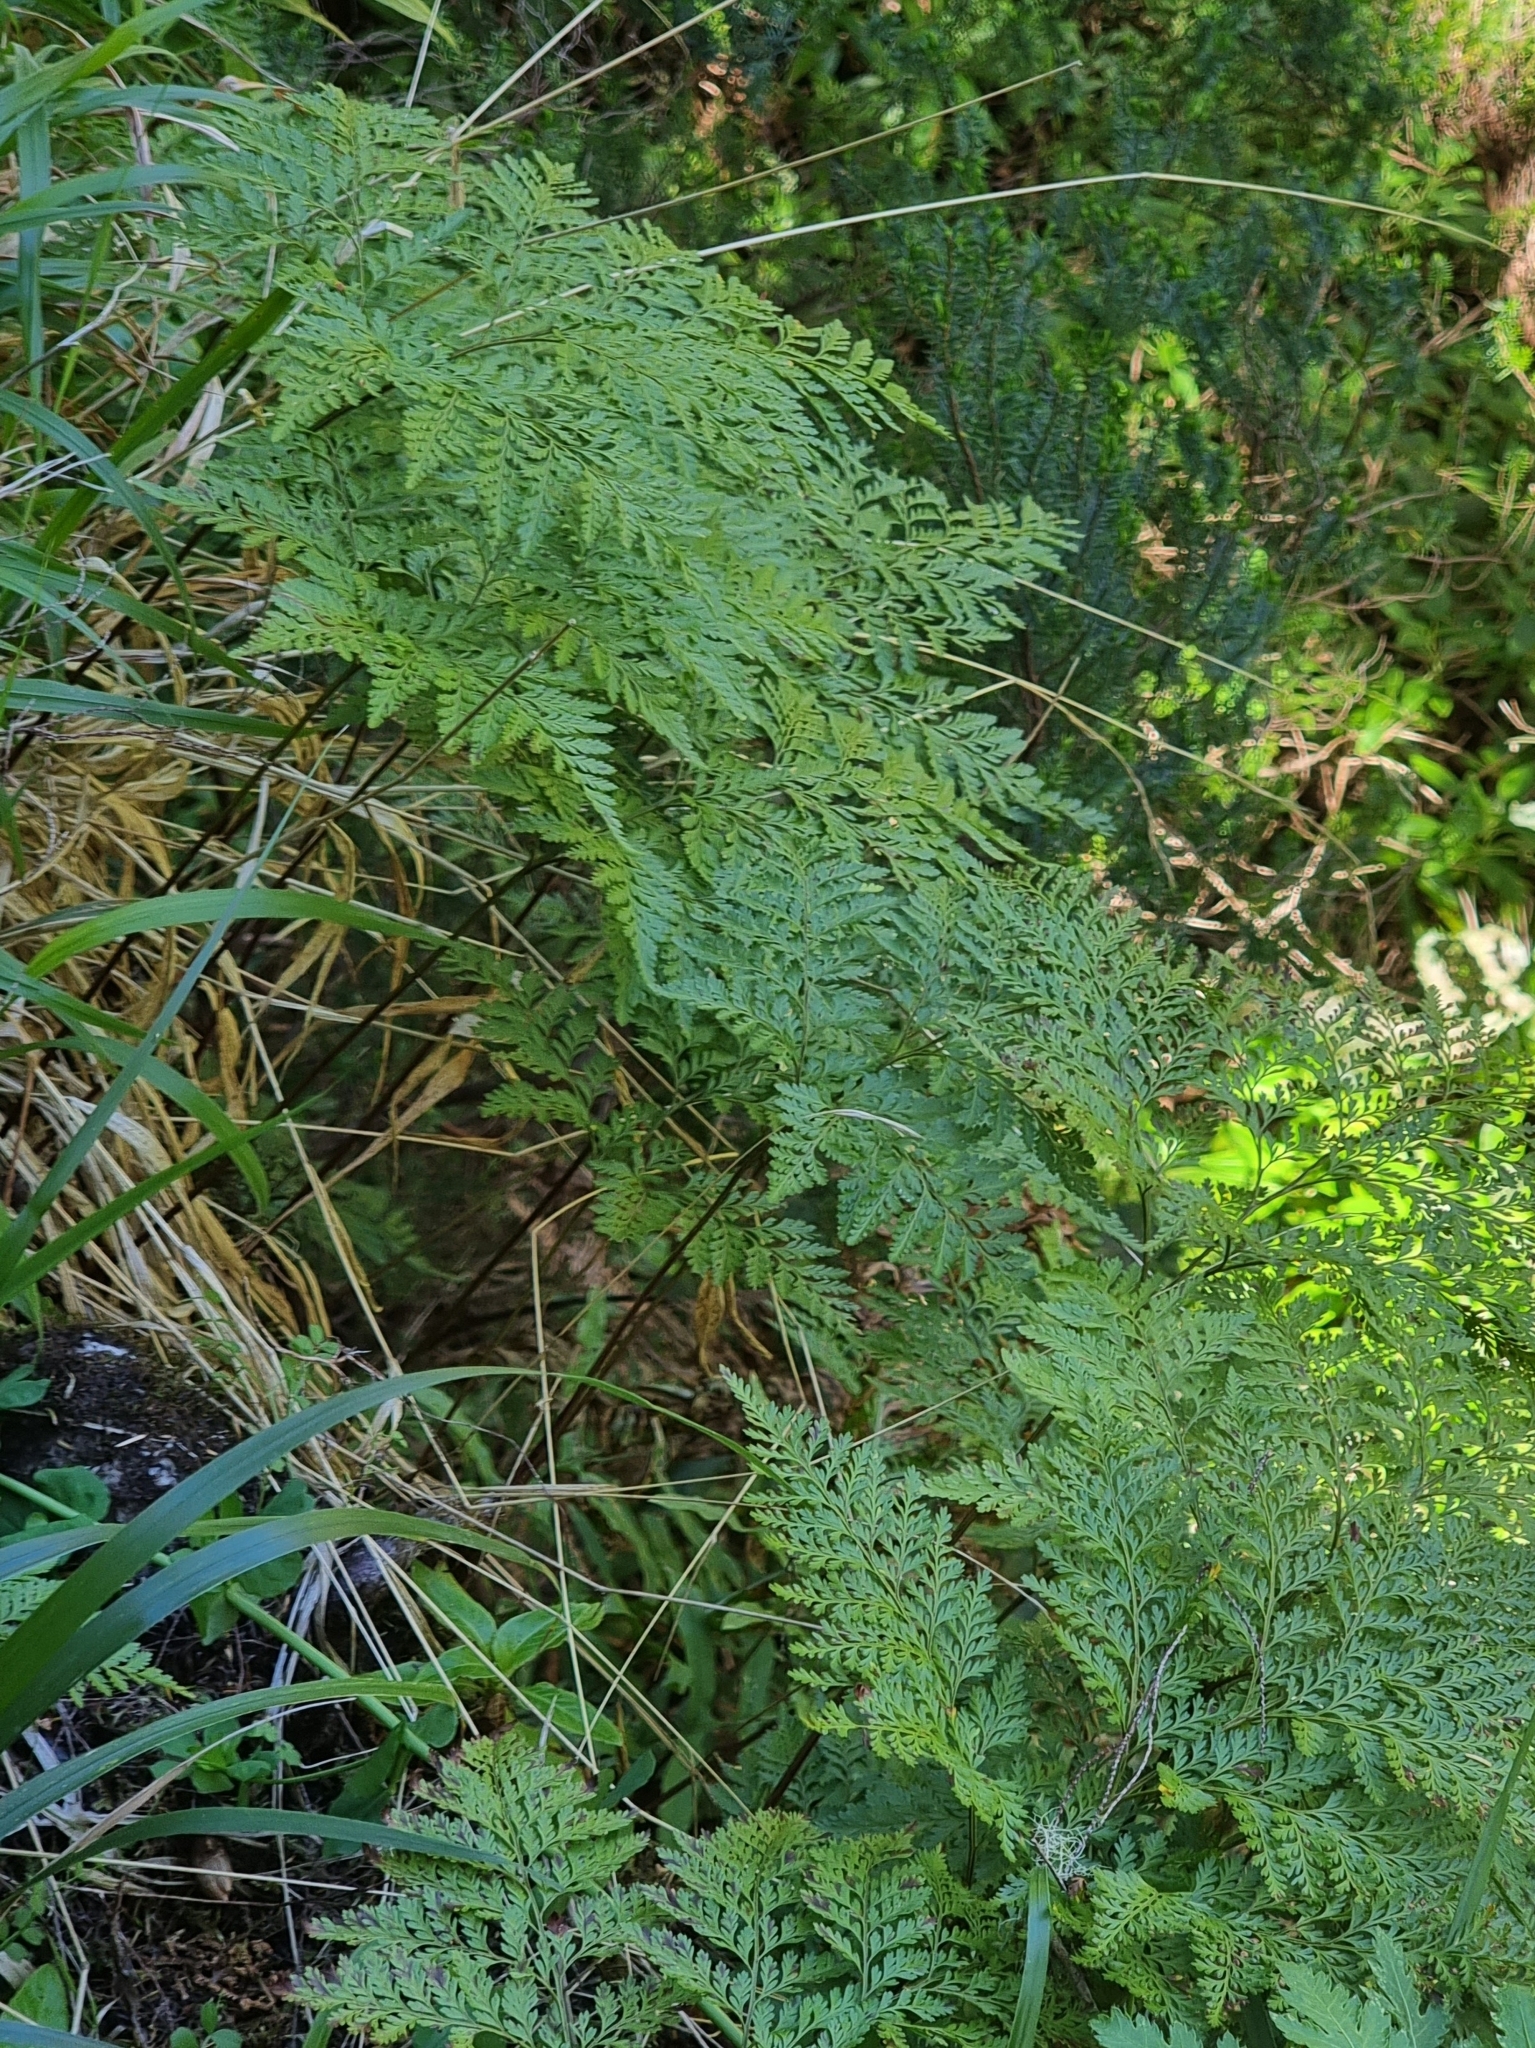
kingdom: Plantae
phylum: Tracheophyta
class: Polypodiopsida
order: Polypodiales
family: Davalliaceae
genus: Davallia
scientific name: Davallia canariensis
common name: Hare's-foot fern
